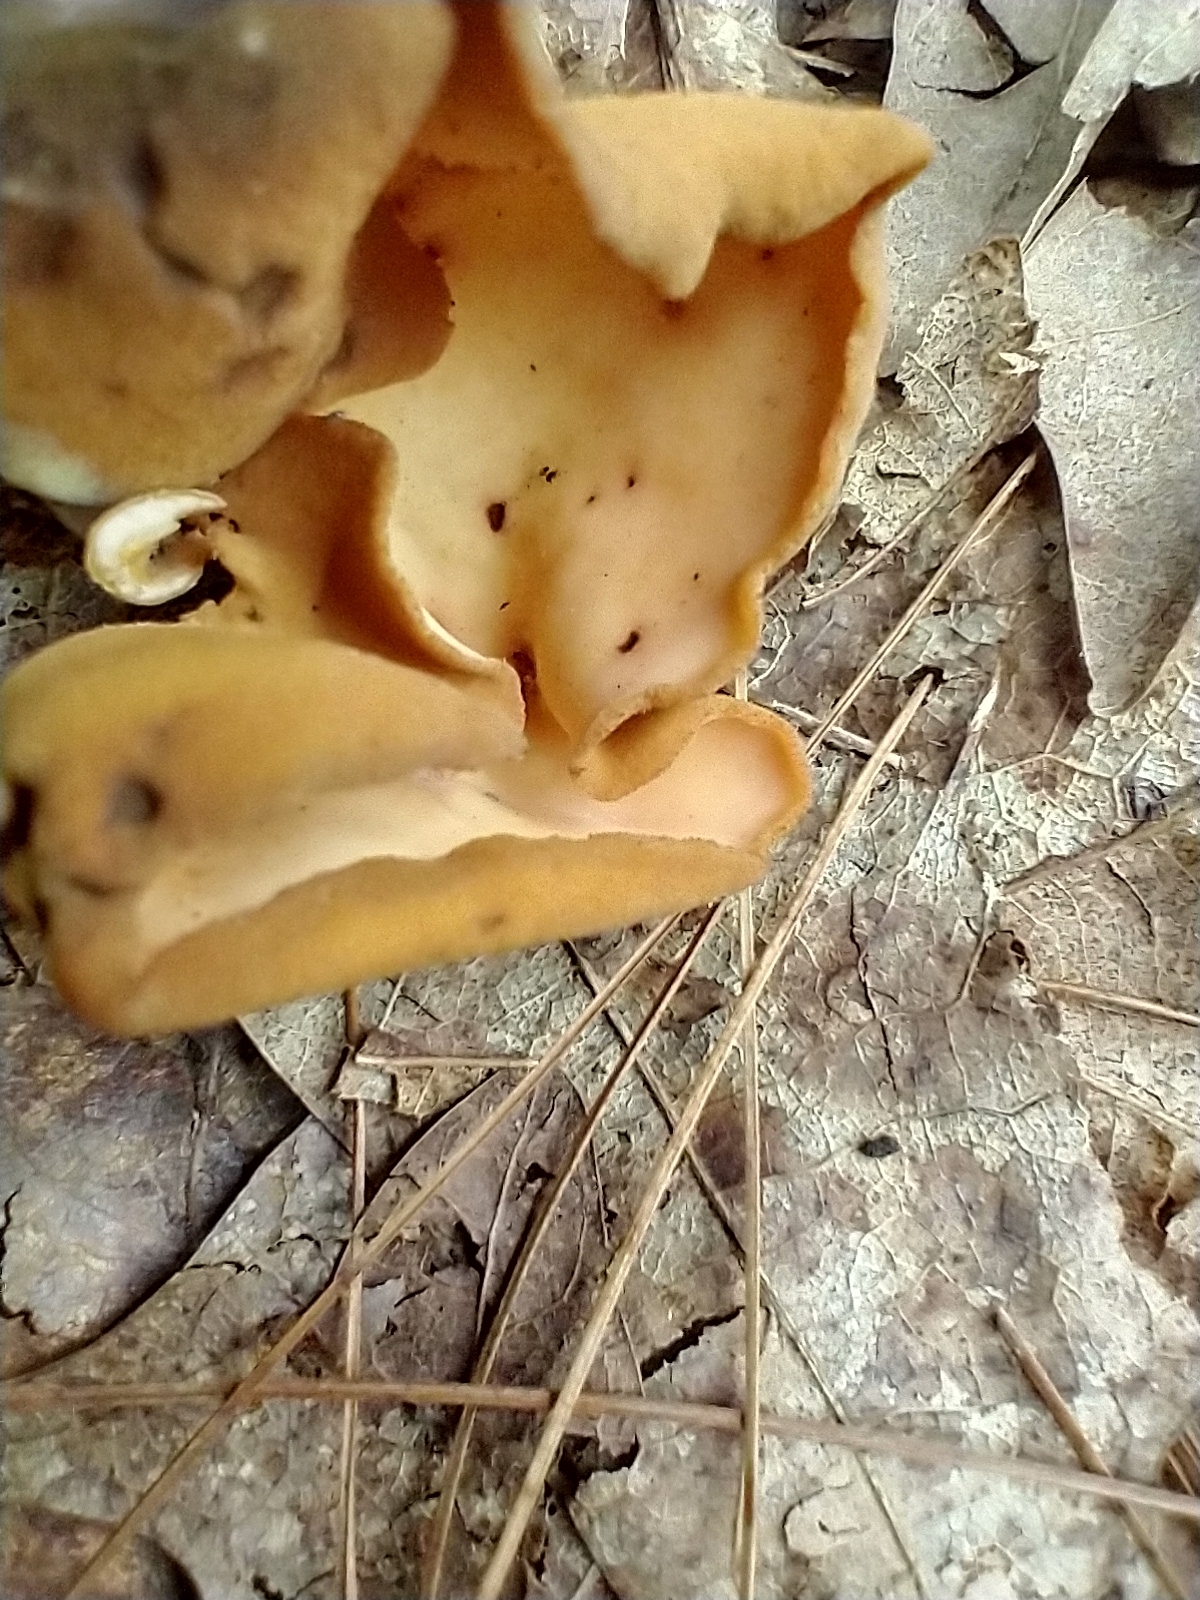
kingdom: Fungi
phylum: Ascomycota
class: Pezizomycetes
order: Pezizales
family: Otideaceae
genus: Otidea
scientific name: Otidea onotica
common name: Hare's ear
